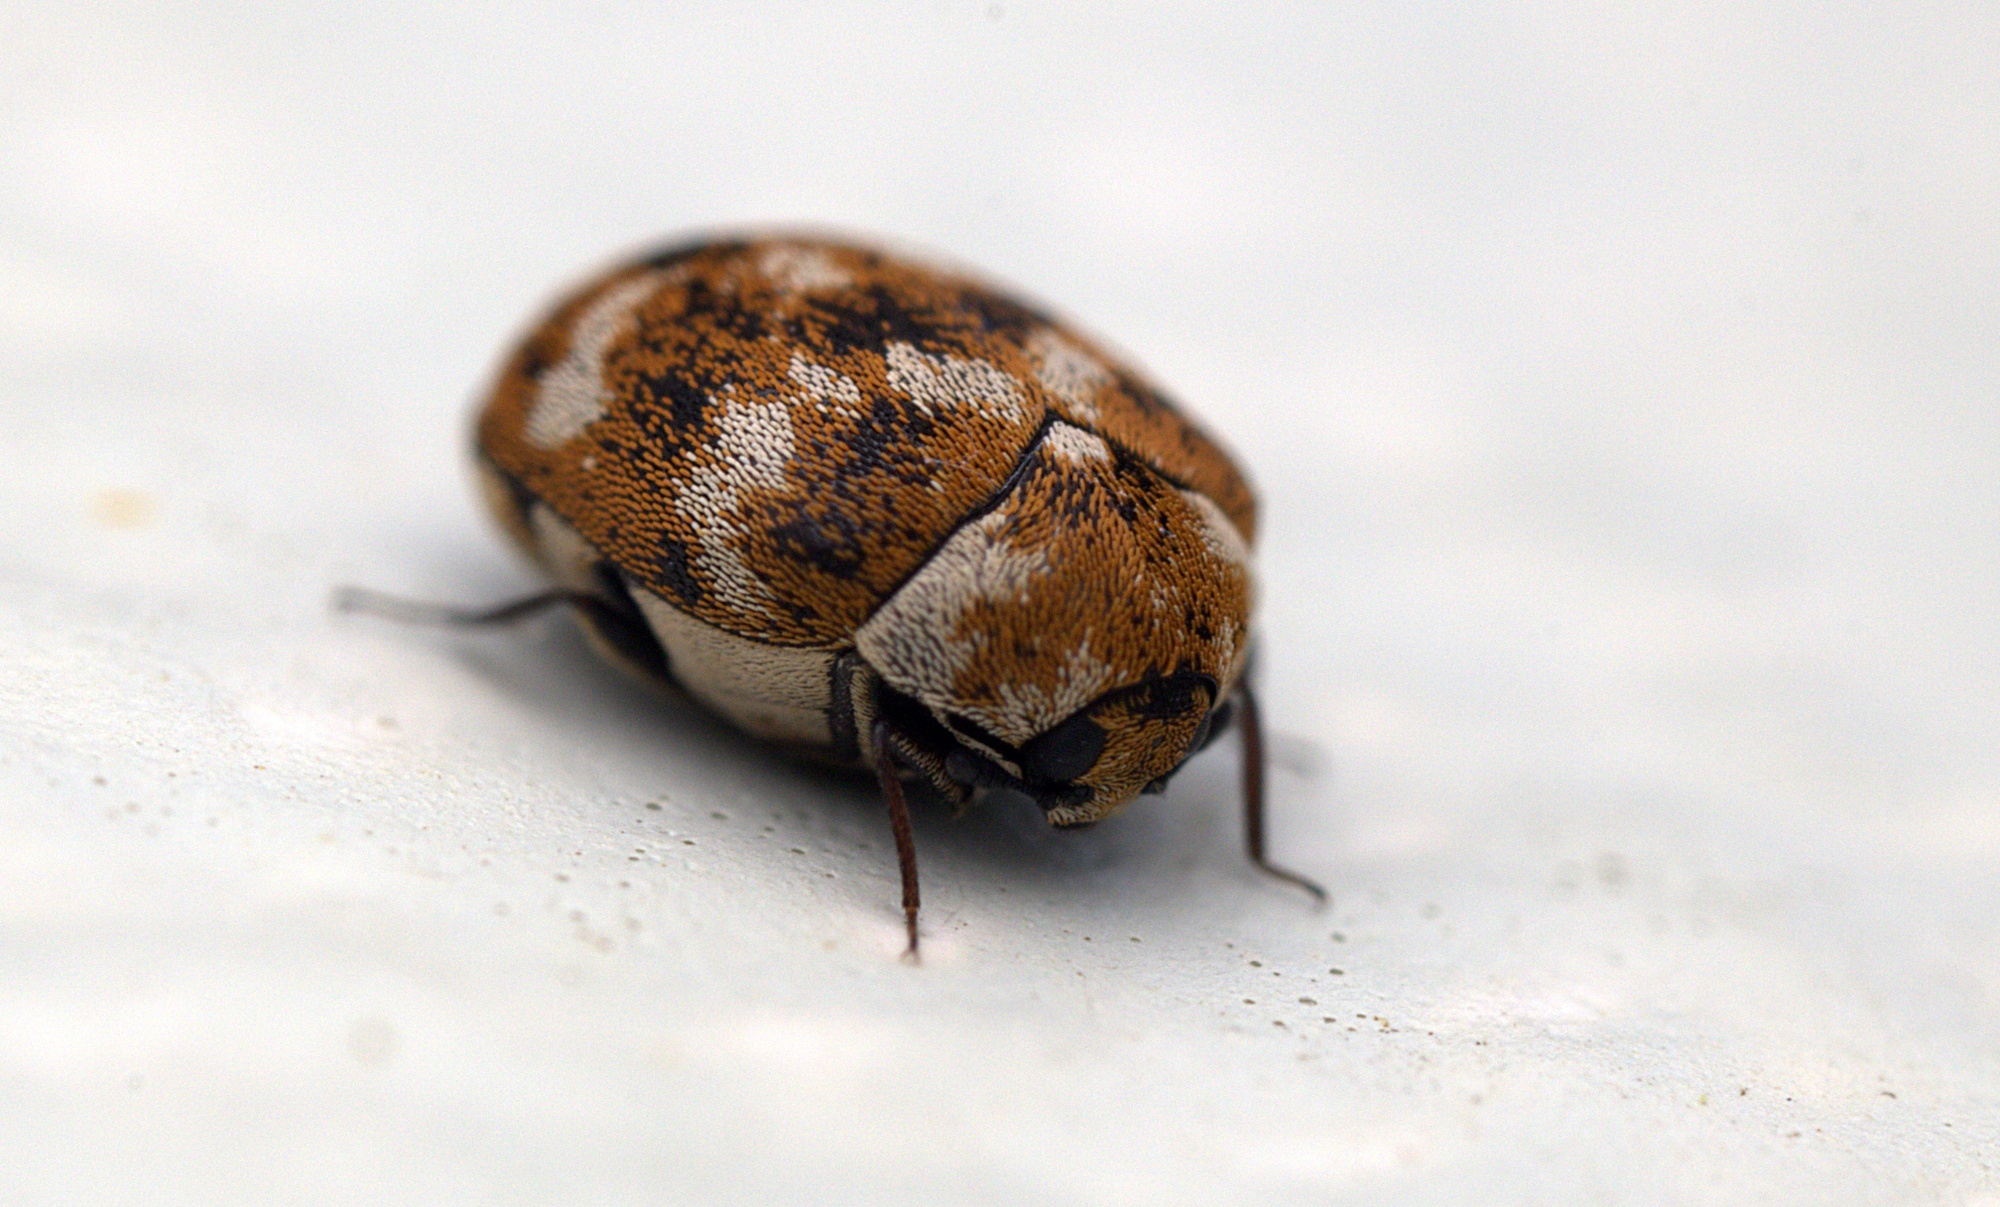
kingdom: Animalia
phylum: Arthropoda
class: Insecta
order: Coleoptera
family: Dermestidae
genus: Anthrenus
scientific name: Anthrenus verbasci
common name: Varied carpet beetle
